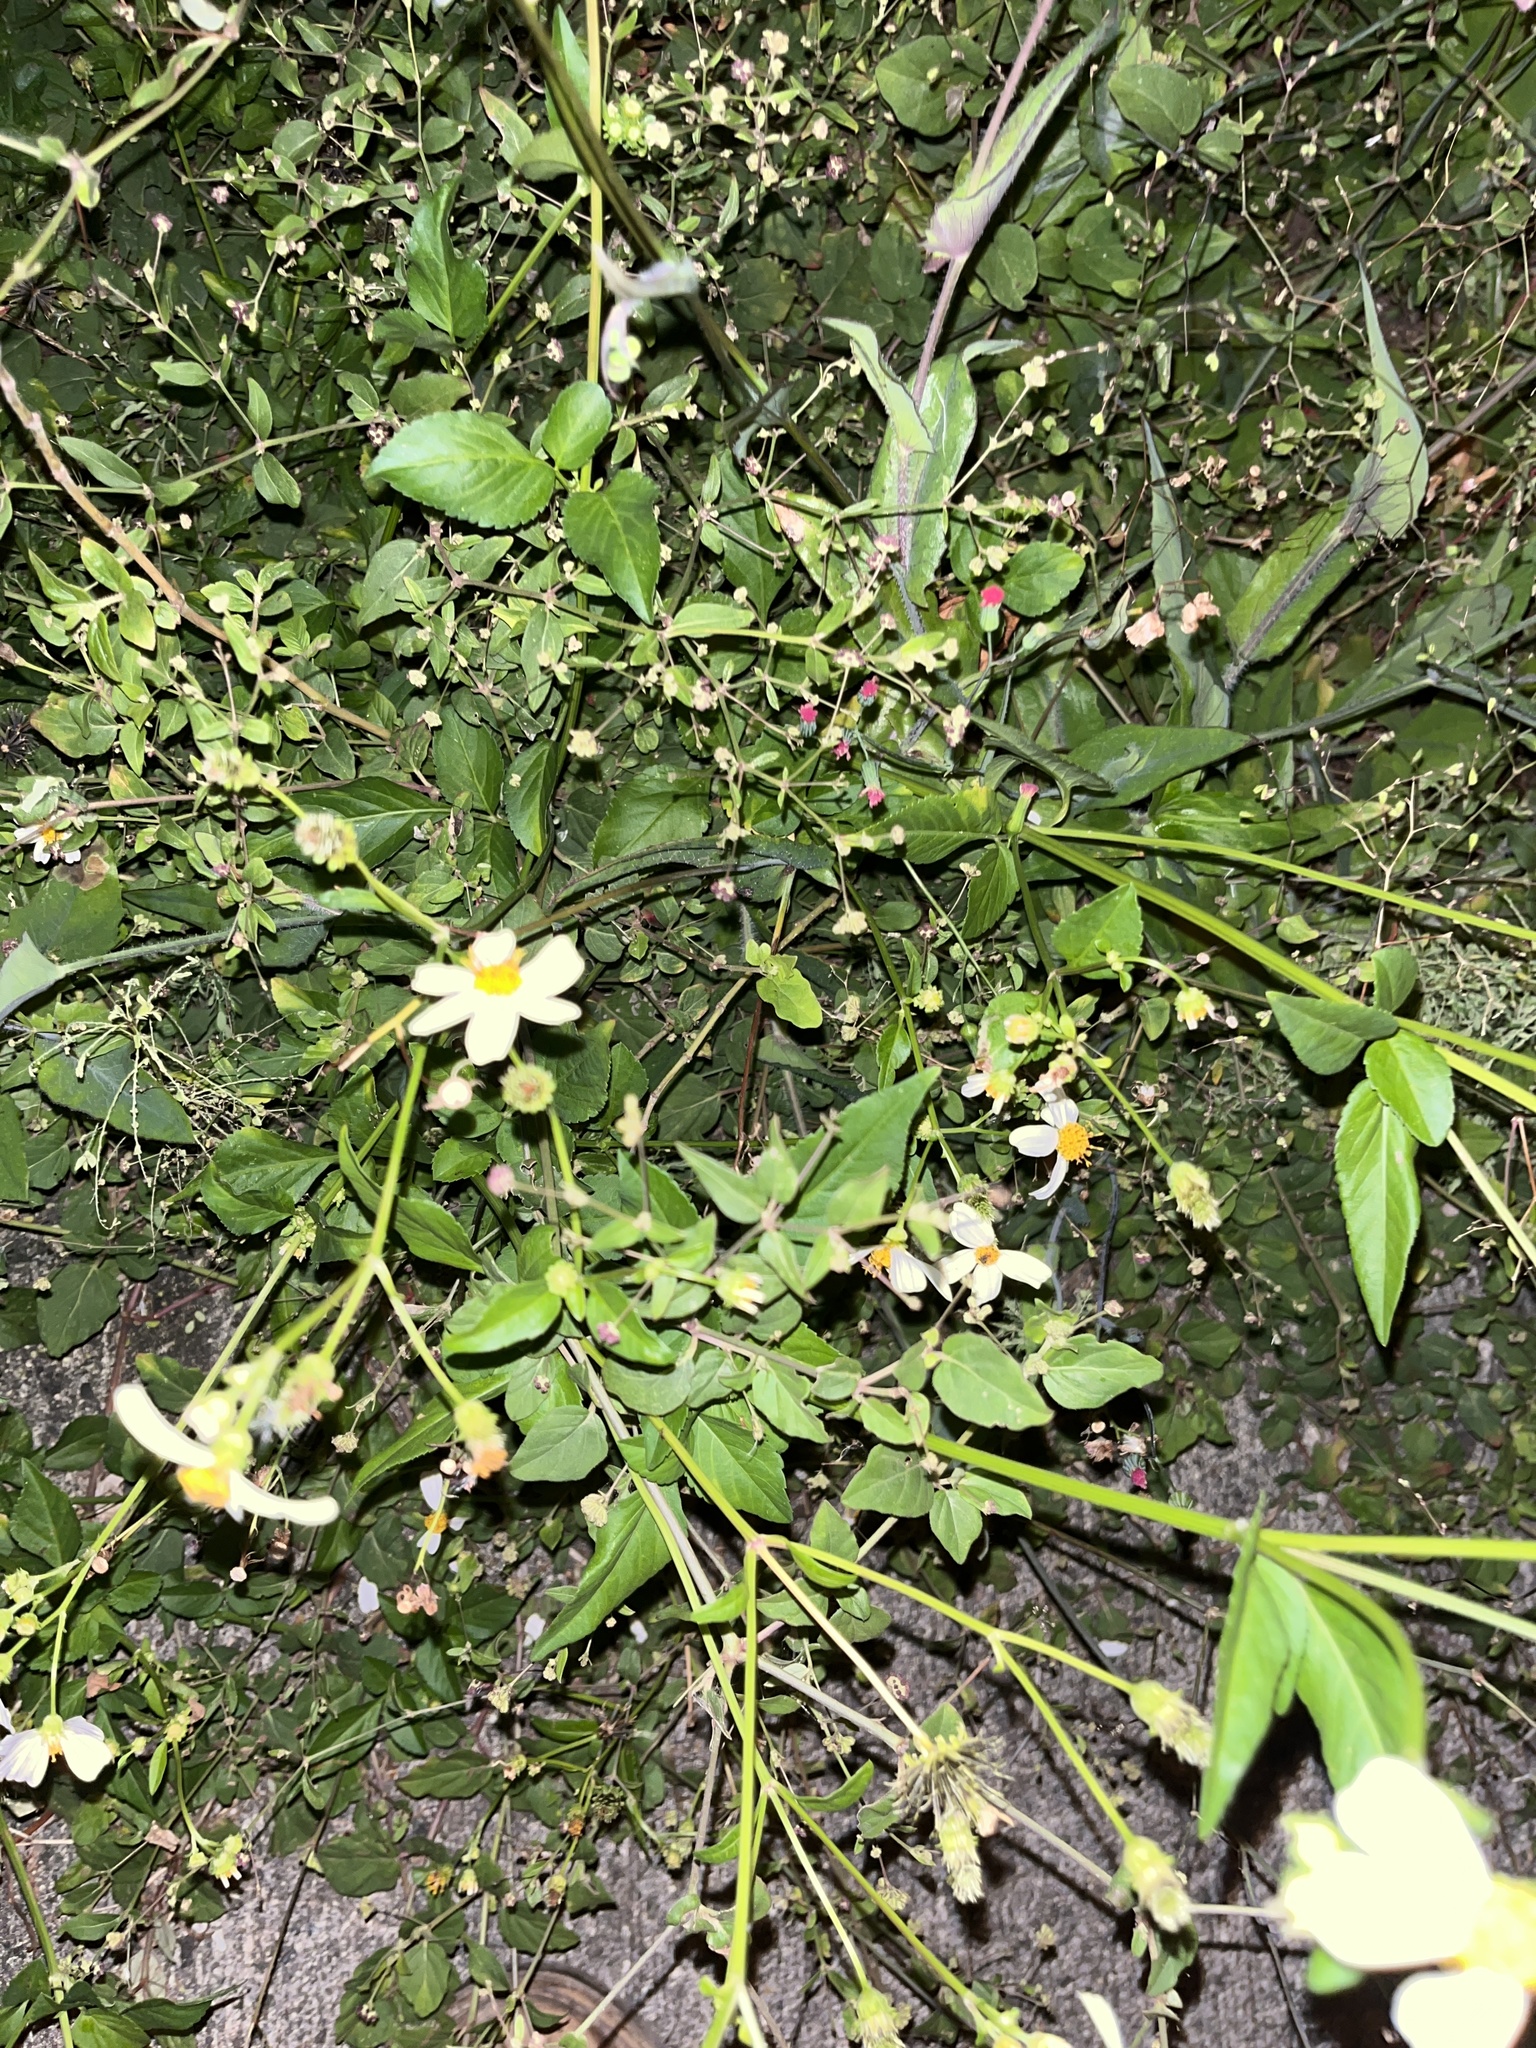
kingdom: Plantae
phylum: Tracheophyta
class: Magnoliopsida
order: Asterales
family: Asteraceae
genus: Bidens
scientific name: Bidens alba
